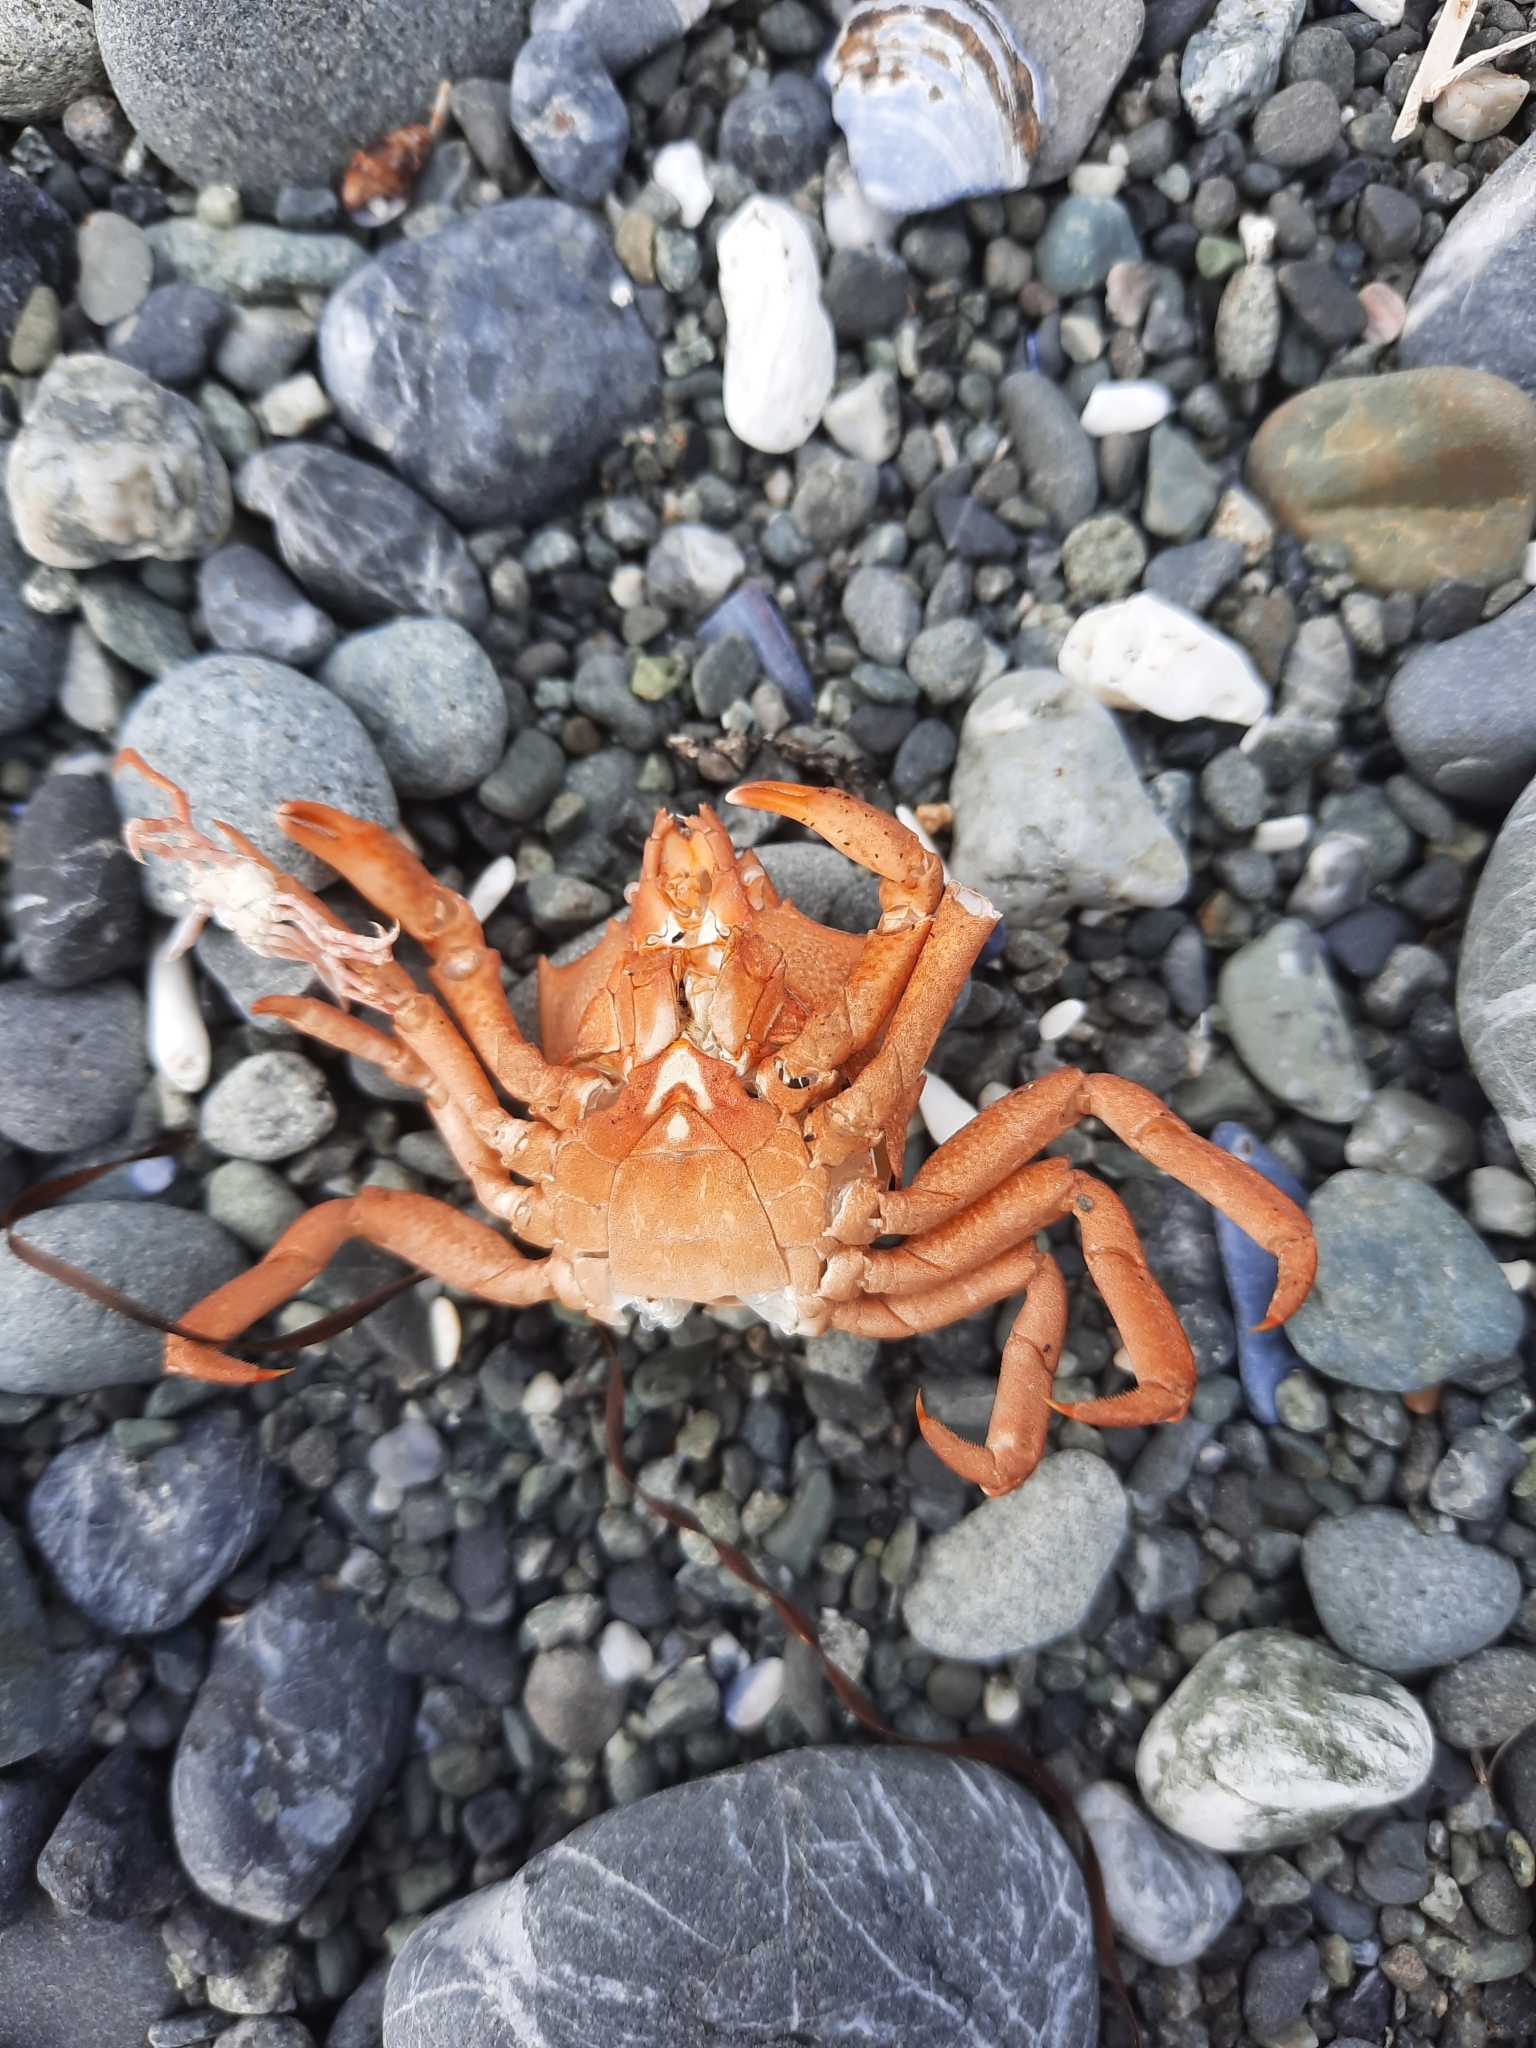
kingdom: Animalia
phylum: Arthropoda
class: Malacostraca
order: Decapoda
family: Epialtidae
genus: Pugettia
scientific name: Pugettia producta
